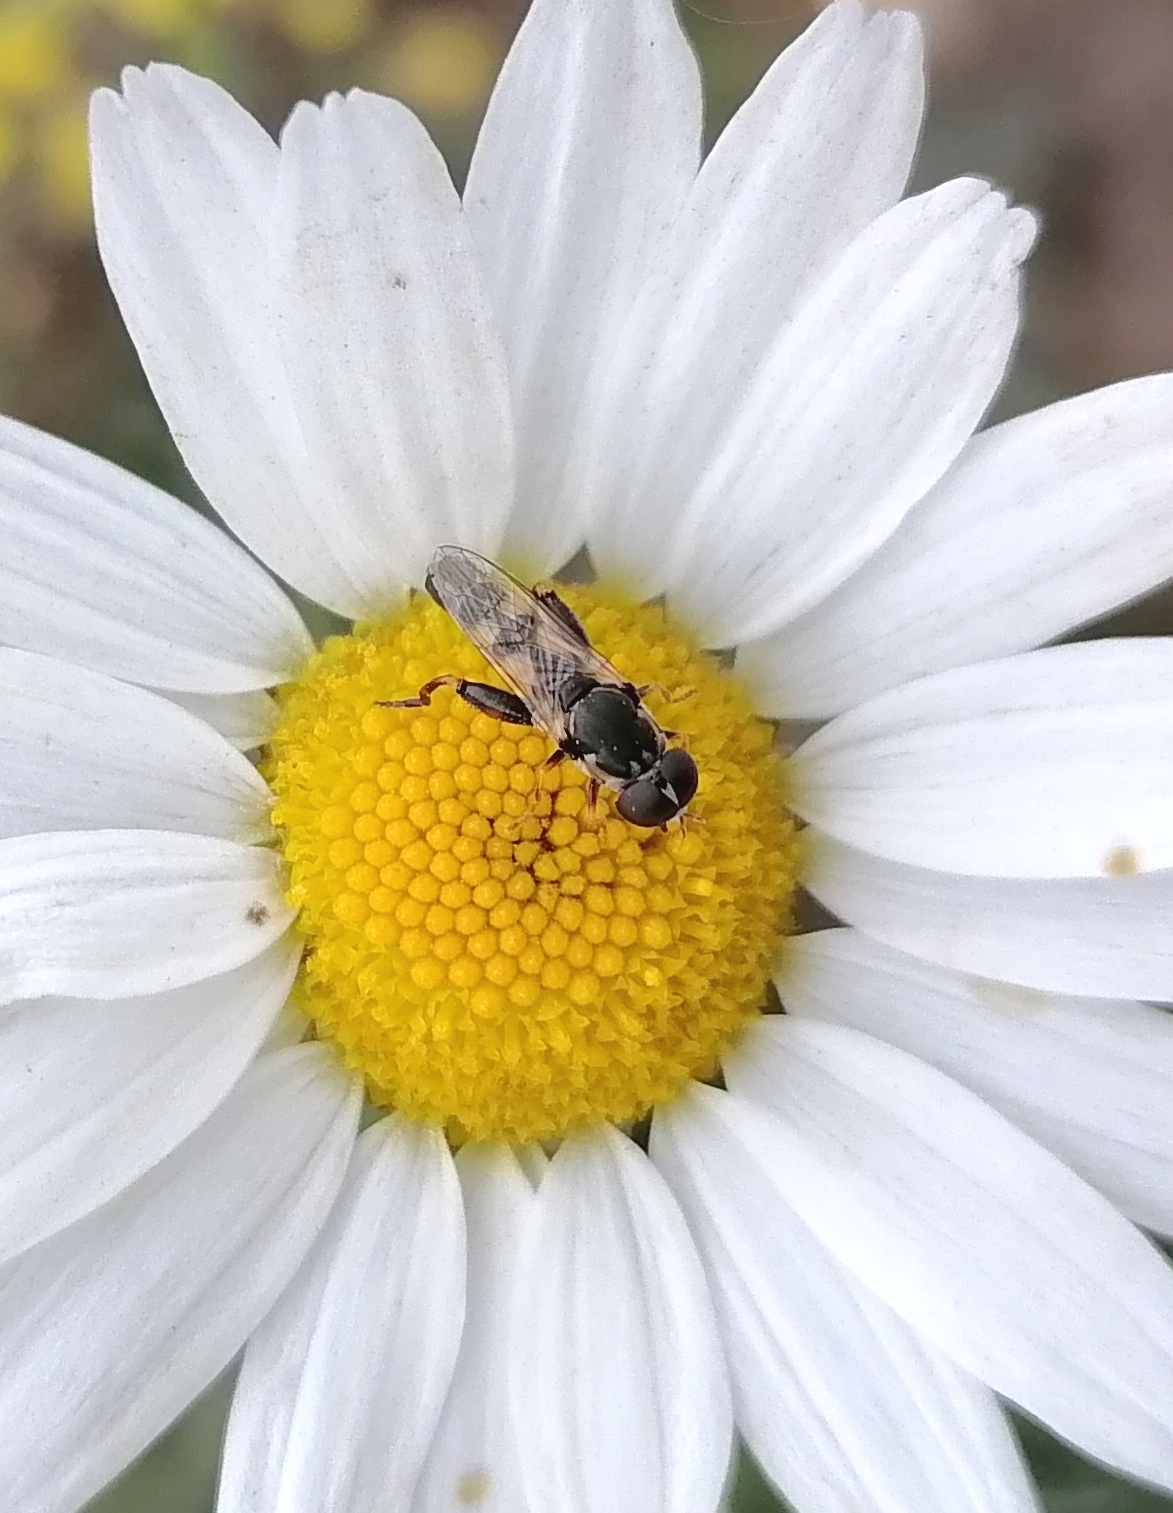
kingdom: Animalia
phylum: Arthropoda
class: Insecta
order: Diptera
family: Syrphidae
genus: Syritta
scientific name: Syritta pipiens
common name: Hover fly
